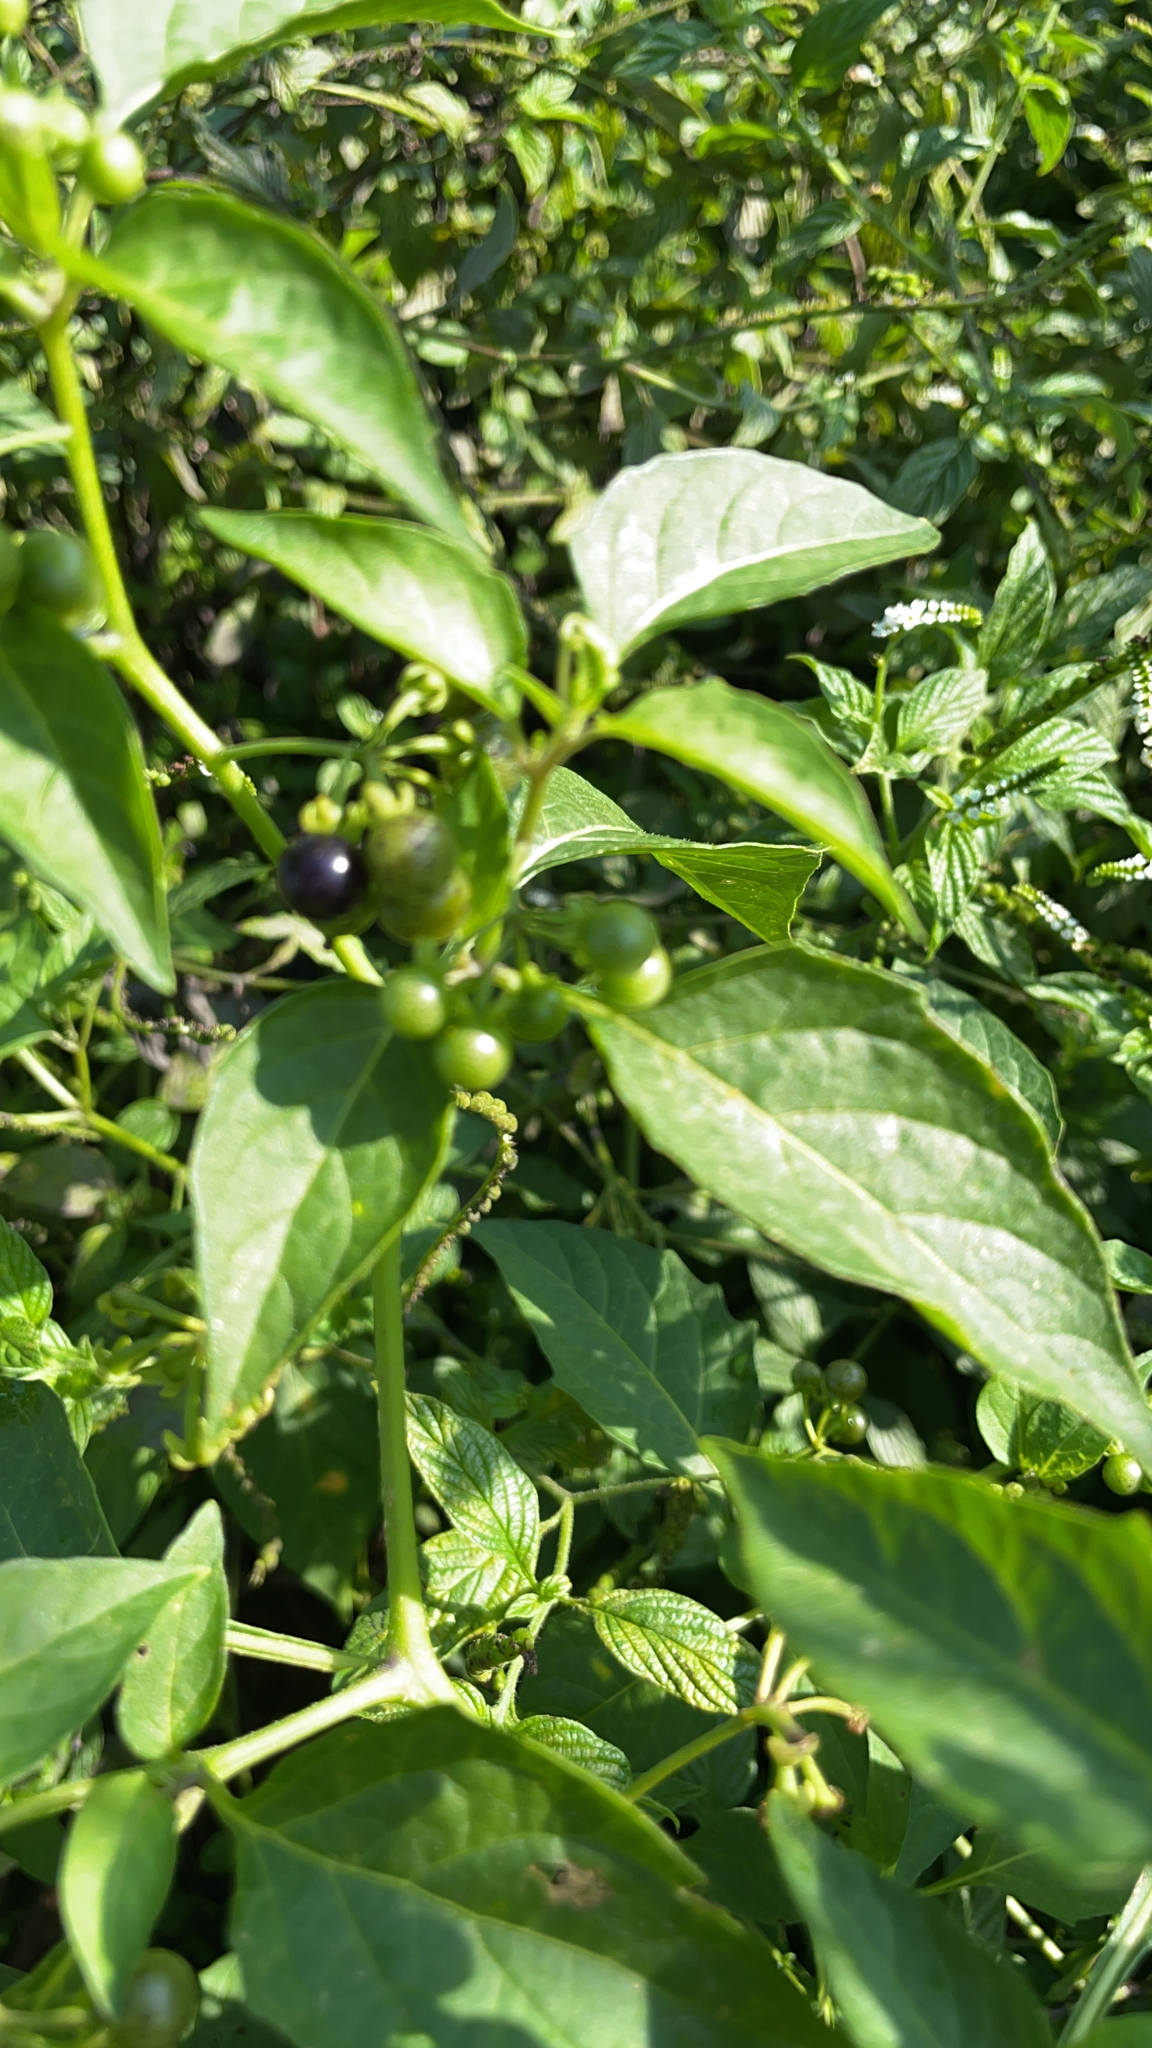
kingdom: Plantae
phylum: Tracheophyta
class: Magnoliopsida
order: Solanales
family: Solanaceae
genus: Solanum
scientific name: Solanum americanum
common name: American black nightshade
